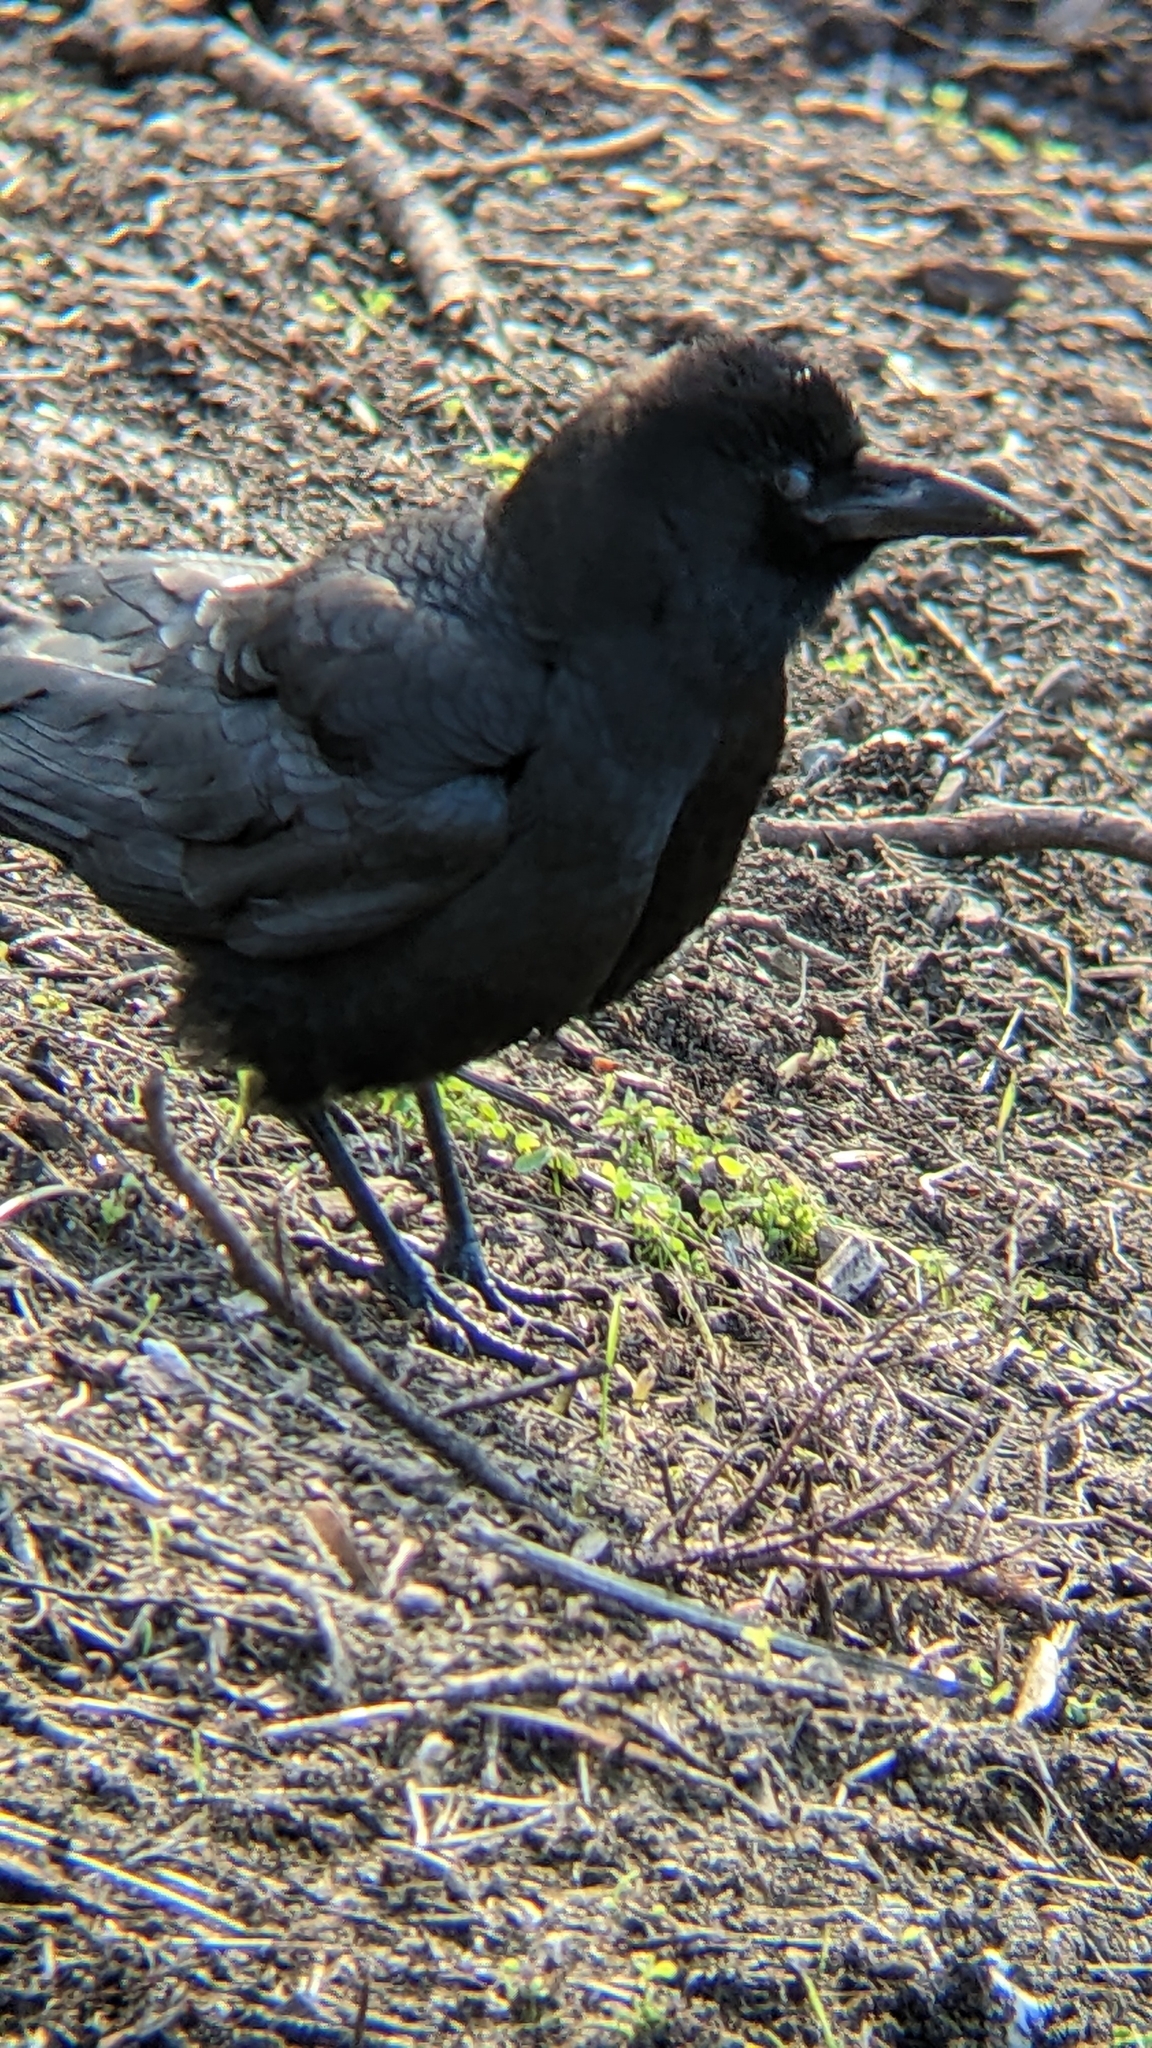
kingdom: Animalia
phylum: Chordata
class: Aves
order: Passeriformes
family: Corvidae
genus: Corvus
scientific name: Corvus brachyrhynchos
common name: American crow
